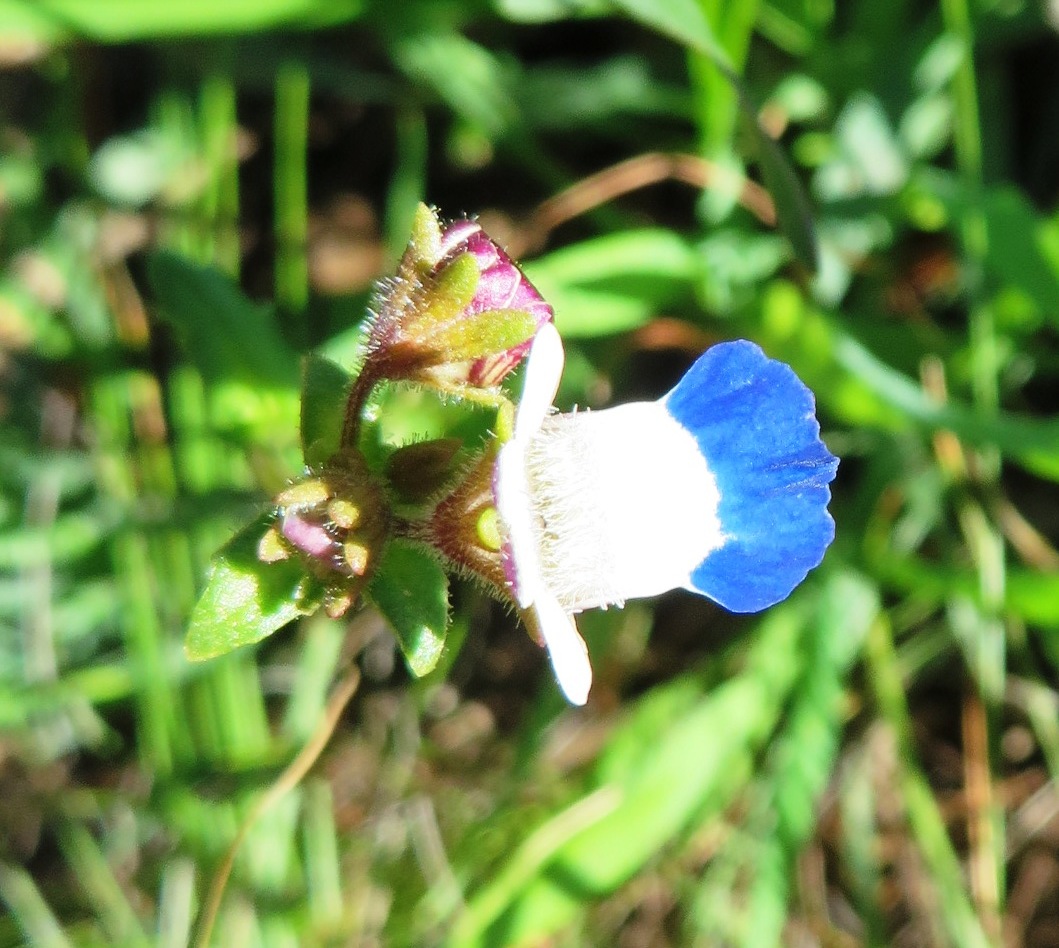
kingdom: Plantae
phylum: Tracheophyta
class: Magnoliopsida
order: Lamiales
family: Scrophulariaceae
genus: Nemesia
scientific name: Nemesia barbata
